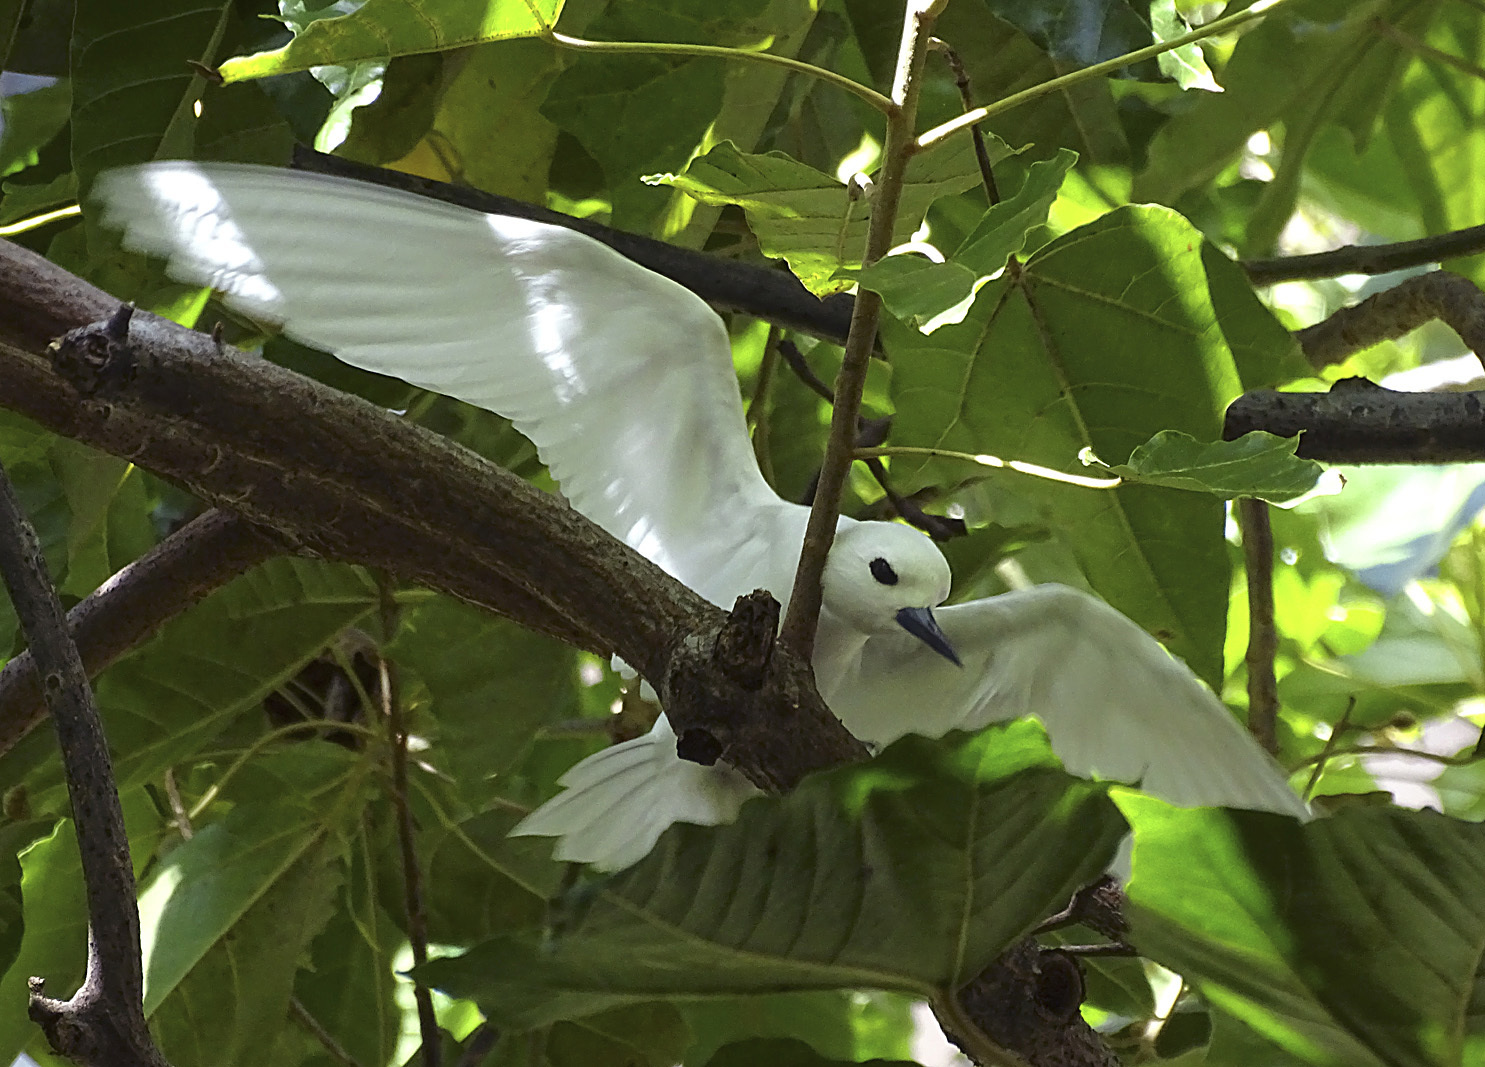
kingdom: Animalia
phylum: Chordata
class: Aves
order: Charadriiformes
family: Laridae
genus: Gygis
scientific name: Gygis alba
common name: White tern
